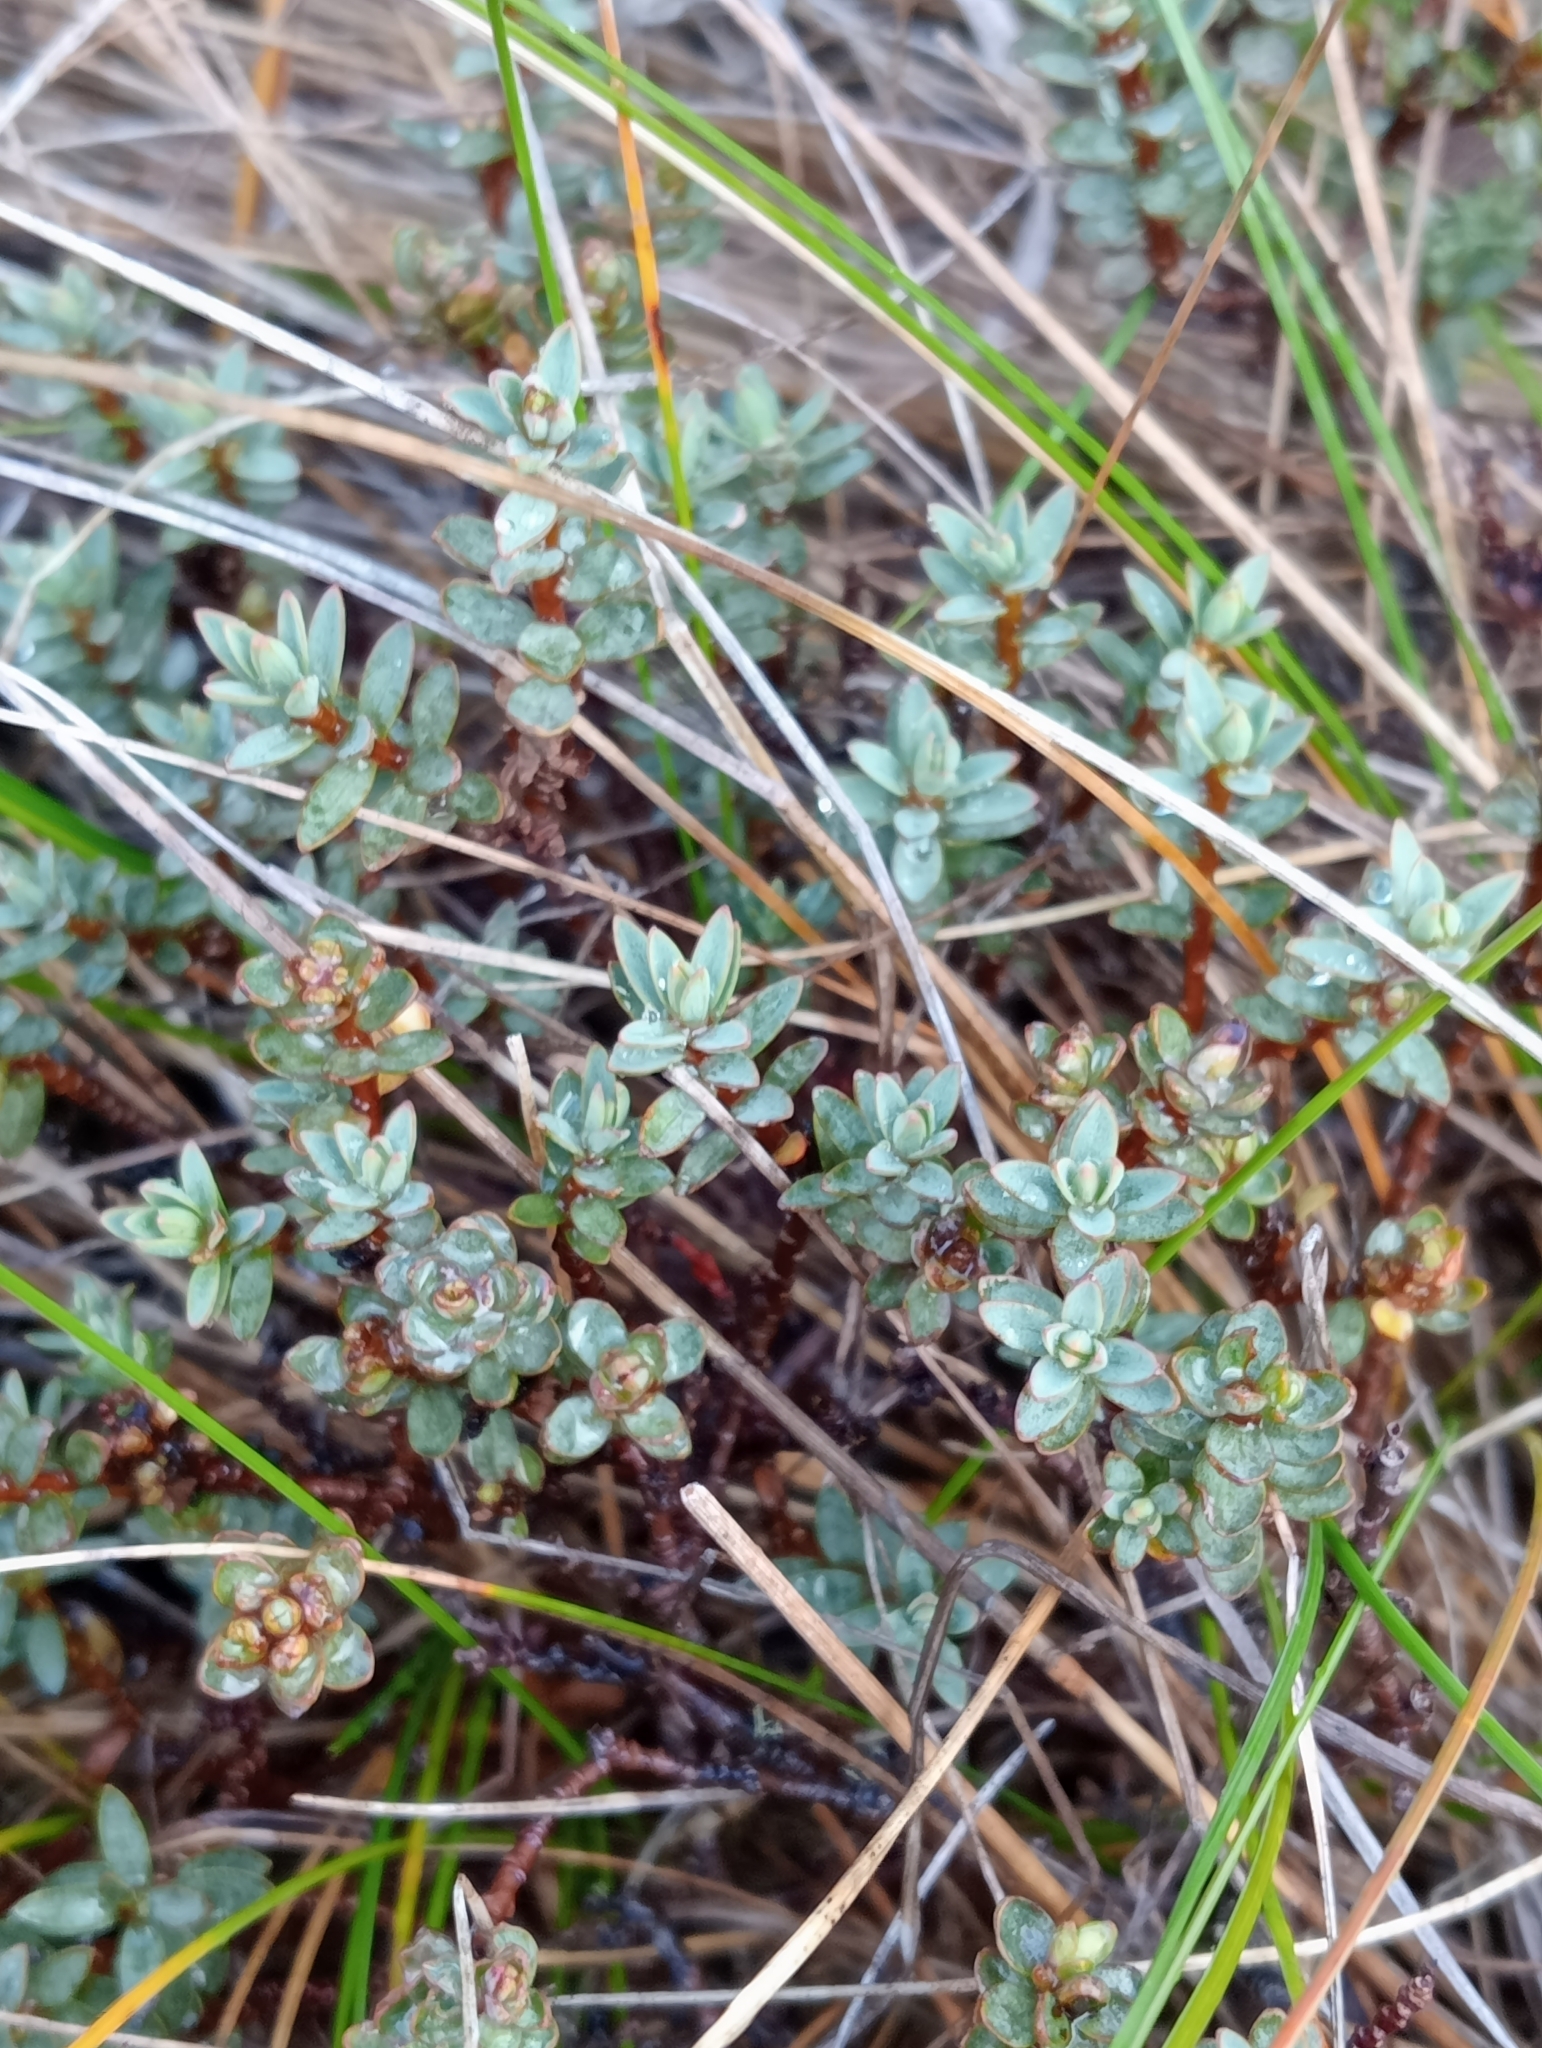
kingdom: Plantae
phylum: Tracheophyta
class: Magnoliopsida
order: Malvales
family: Thymelaeaceae
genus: Pimelea
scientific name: Pimelea prostrata
